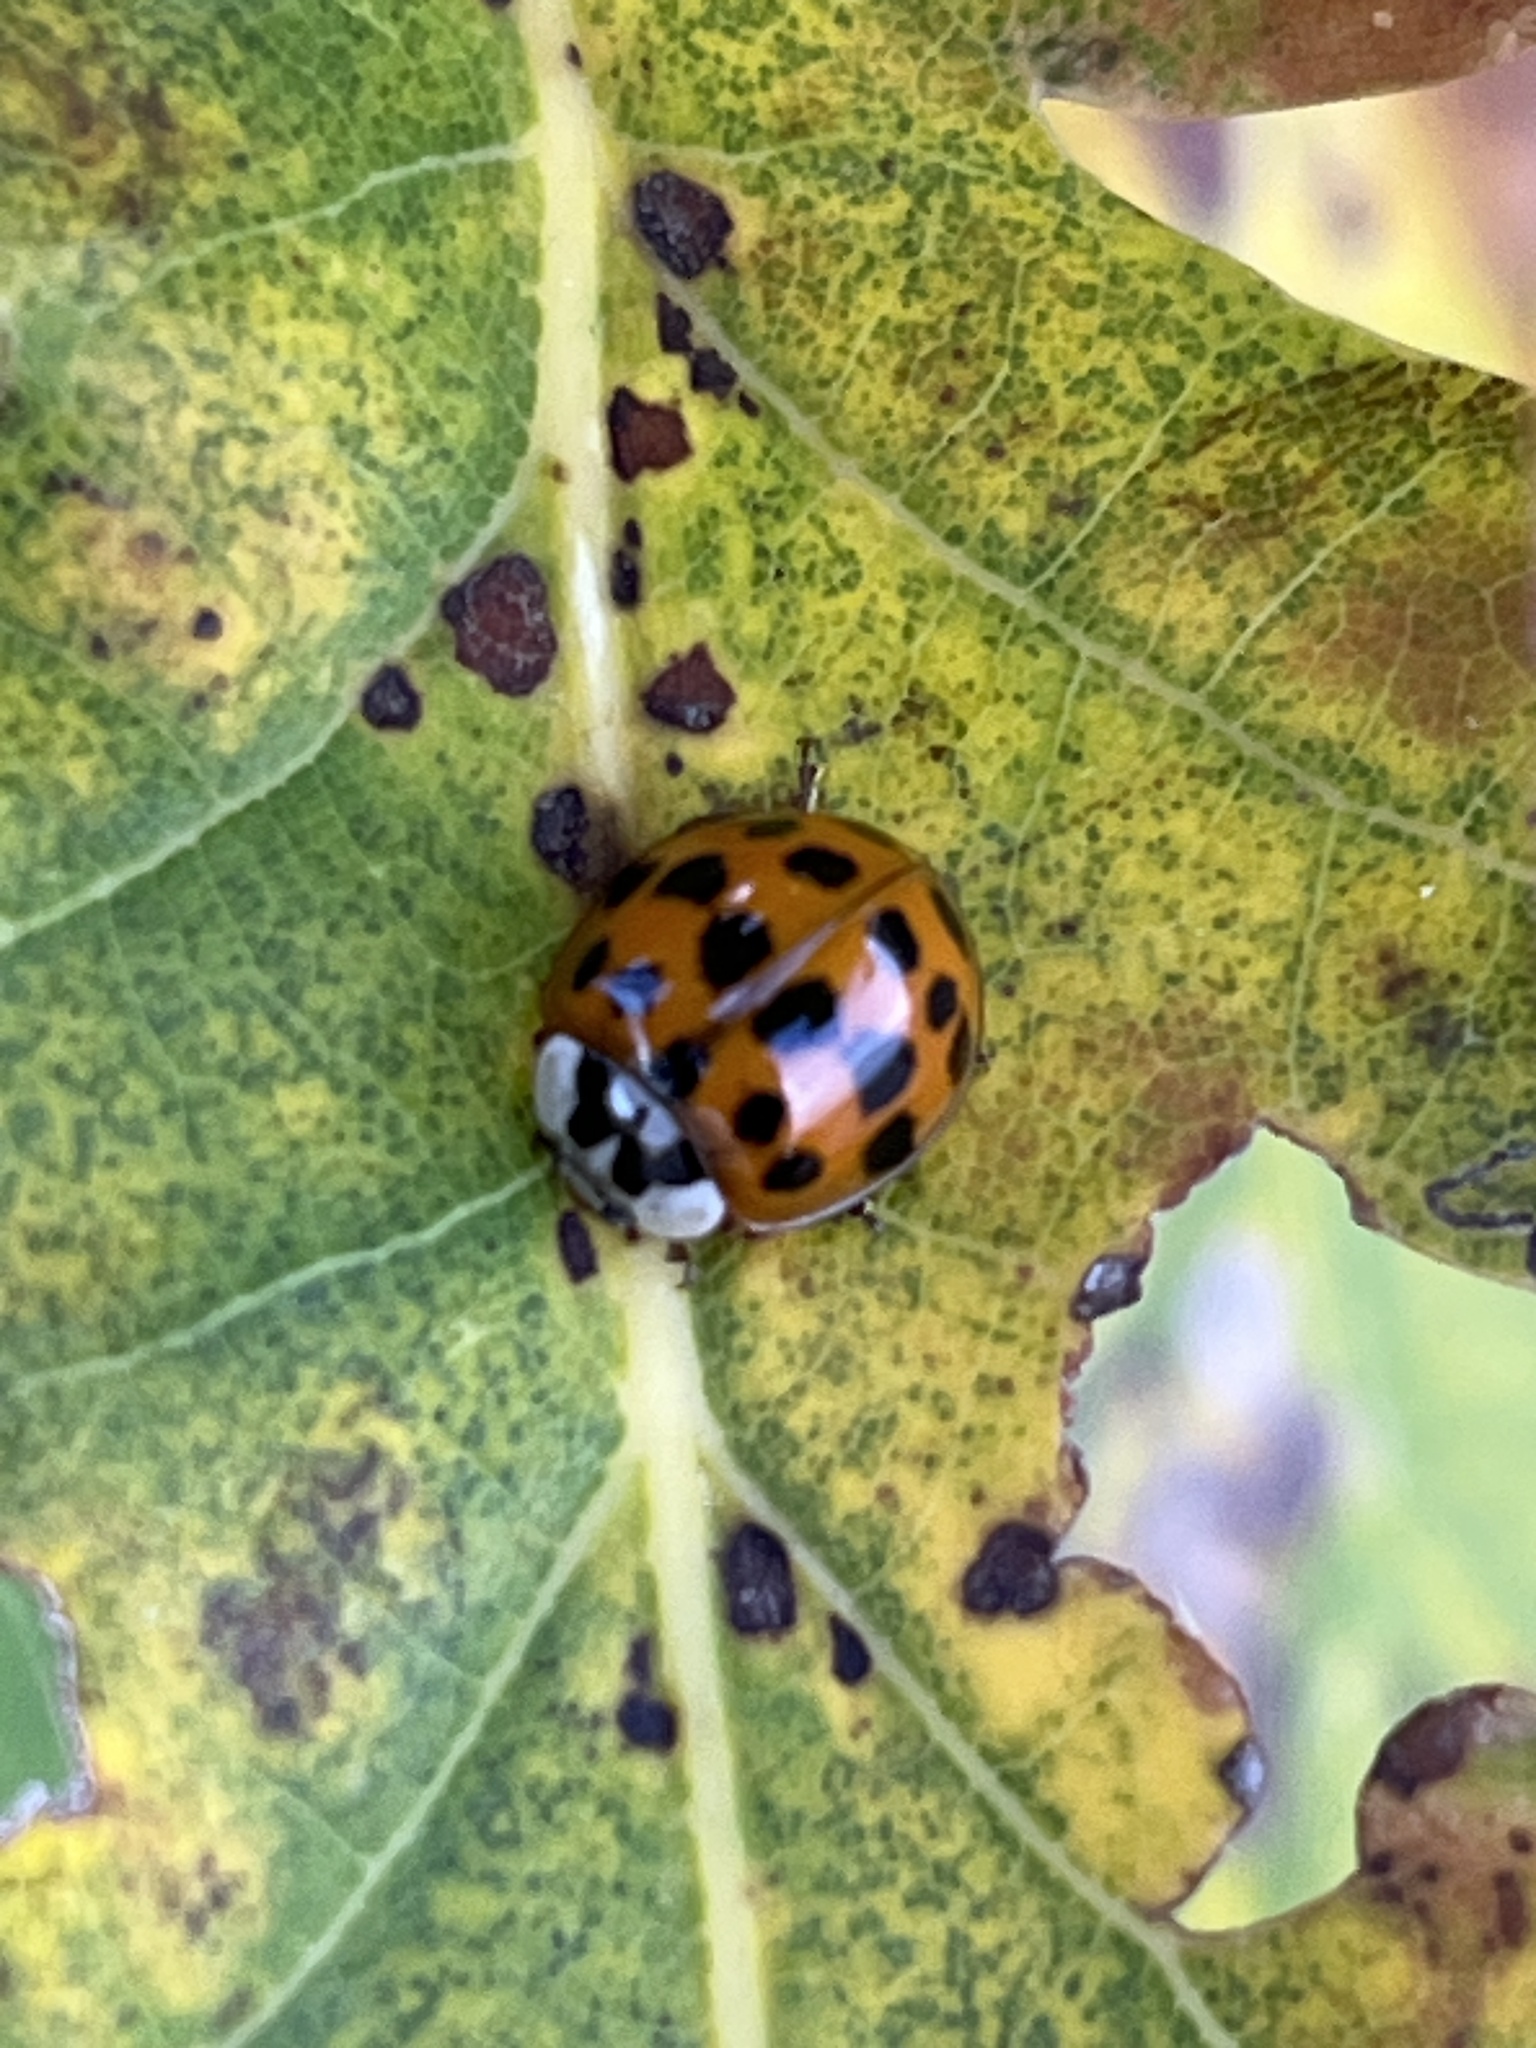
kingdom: Animalia
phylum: Arthropoda
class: Insecta
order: Coleoptera
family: Coccinellidae
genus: Harmonia
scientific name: Harmonia axyridis
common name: Harlequin ladybird
